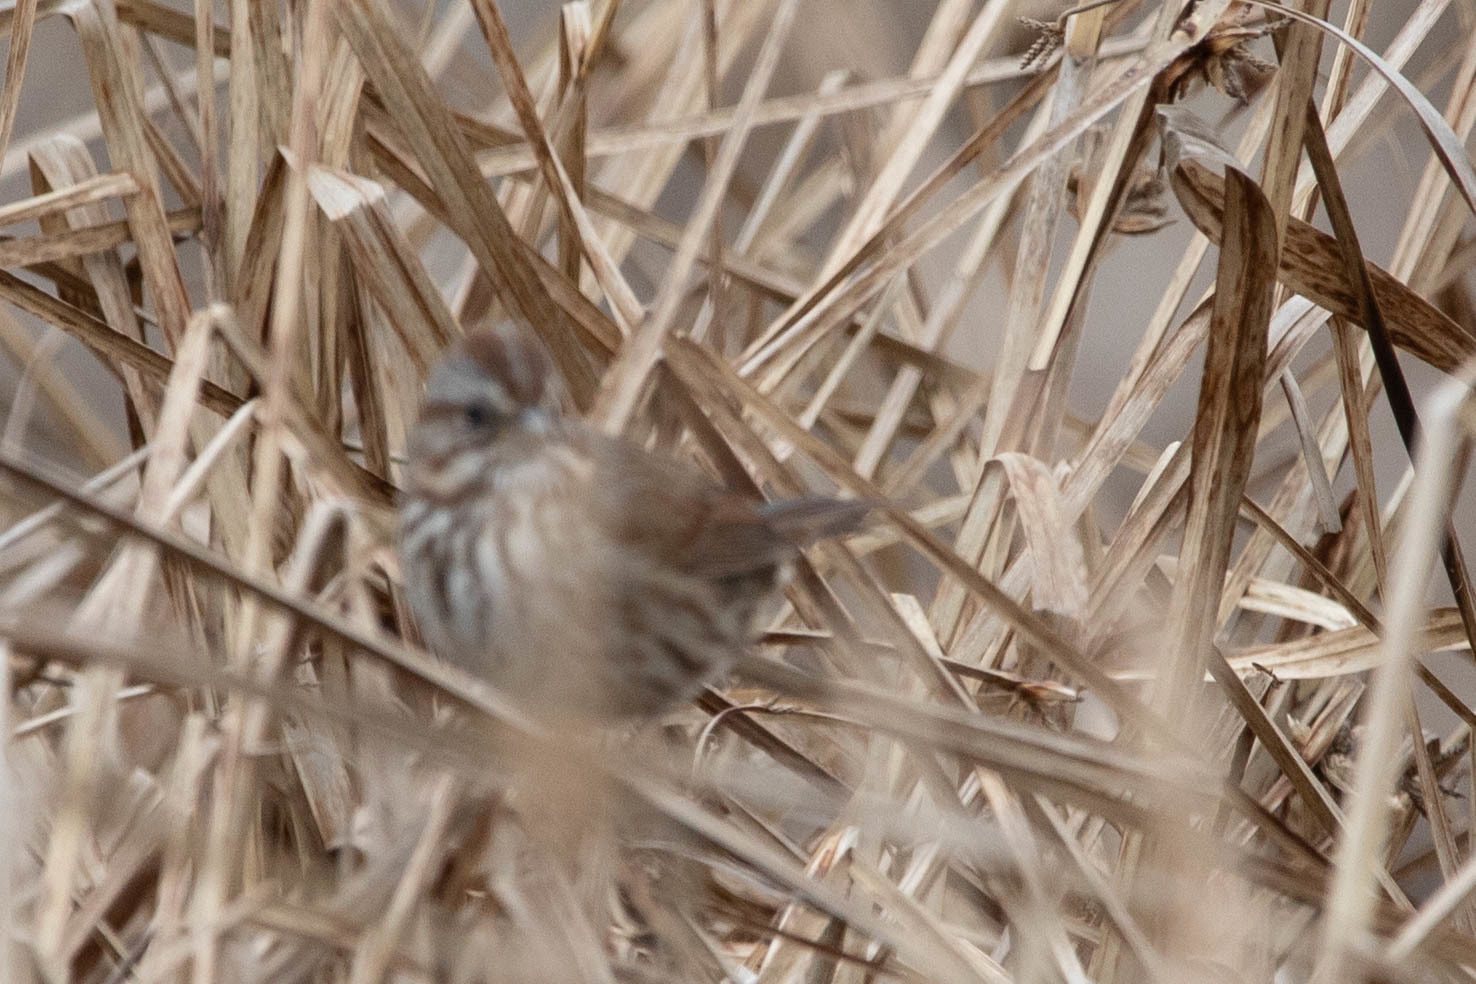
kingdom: Animalia
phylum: Chordata
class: Aves
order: Passeriformes
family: Passerellidae
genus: Melospiza
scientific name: Melospiza melodia
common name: Song sparrow
